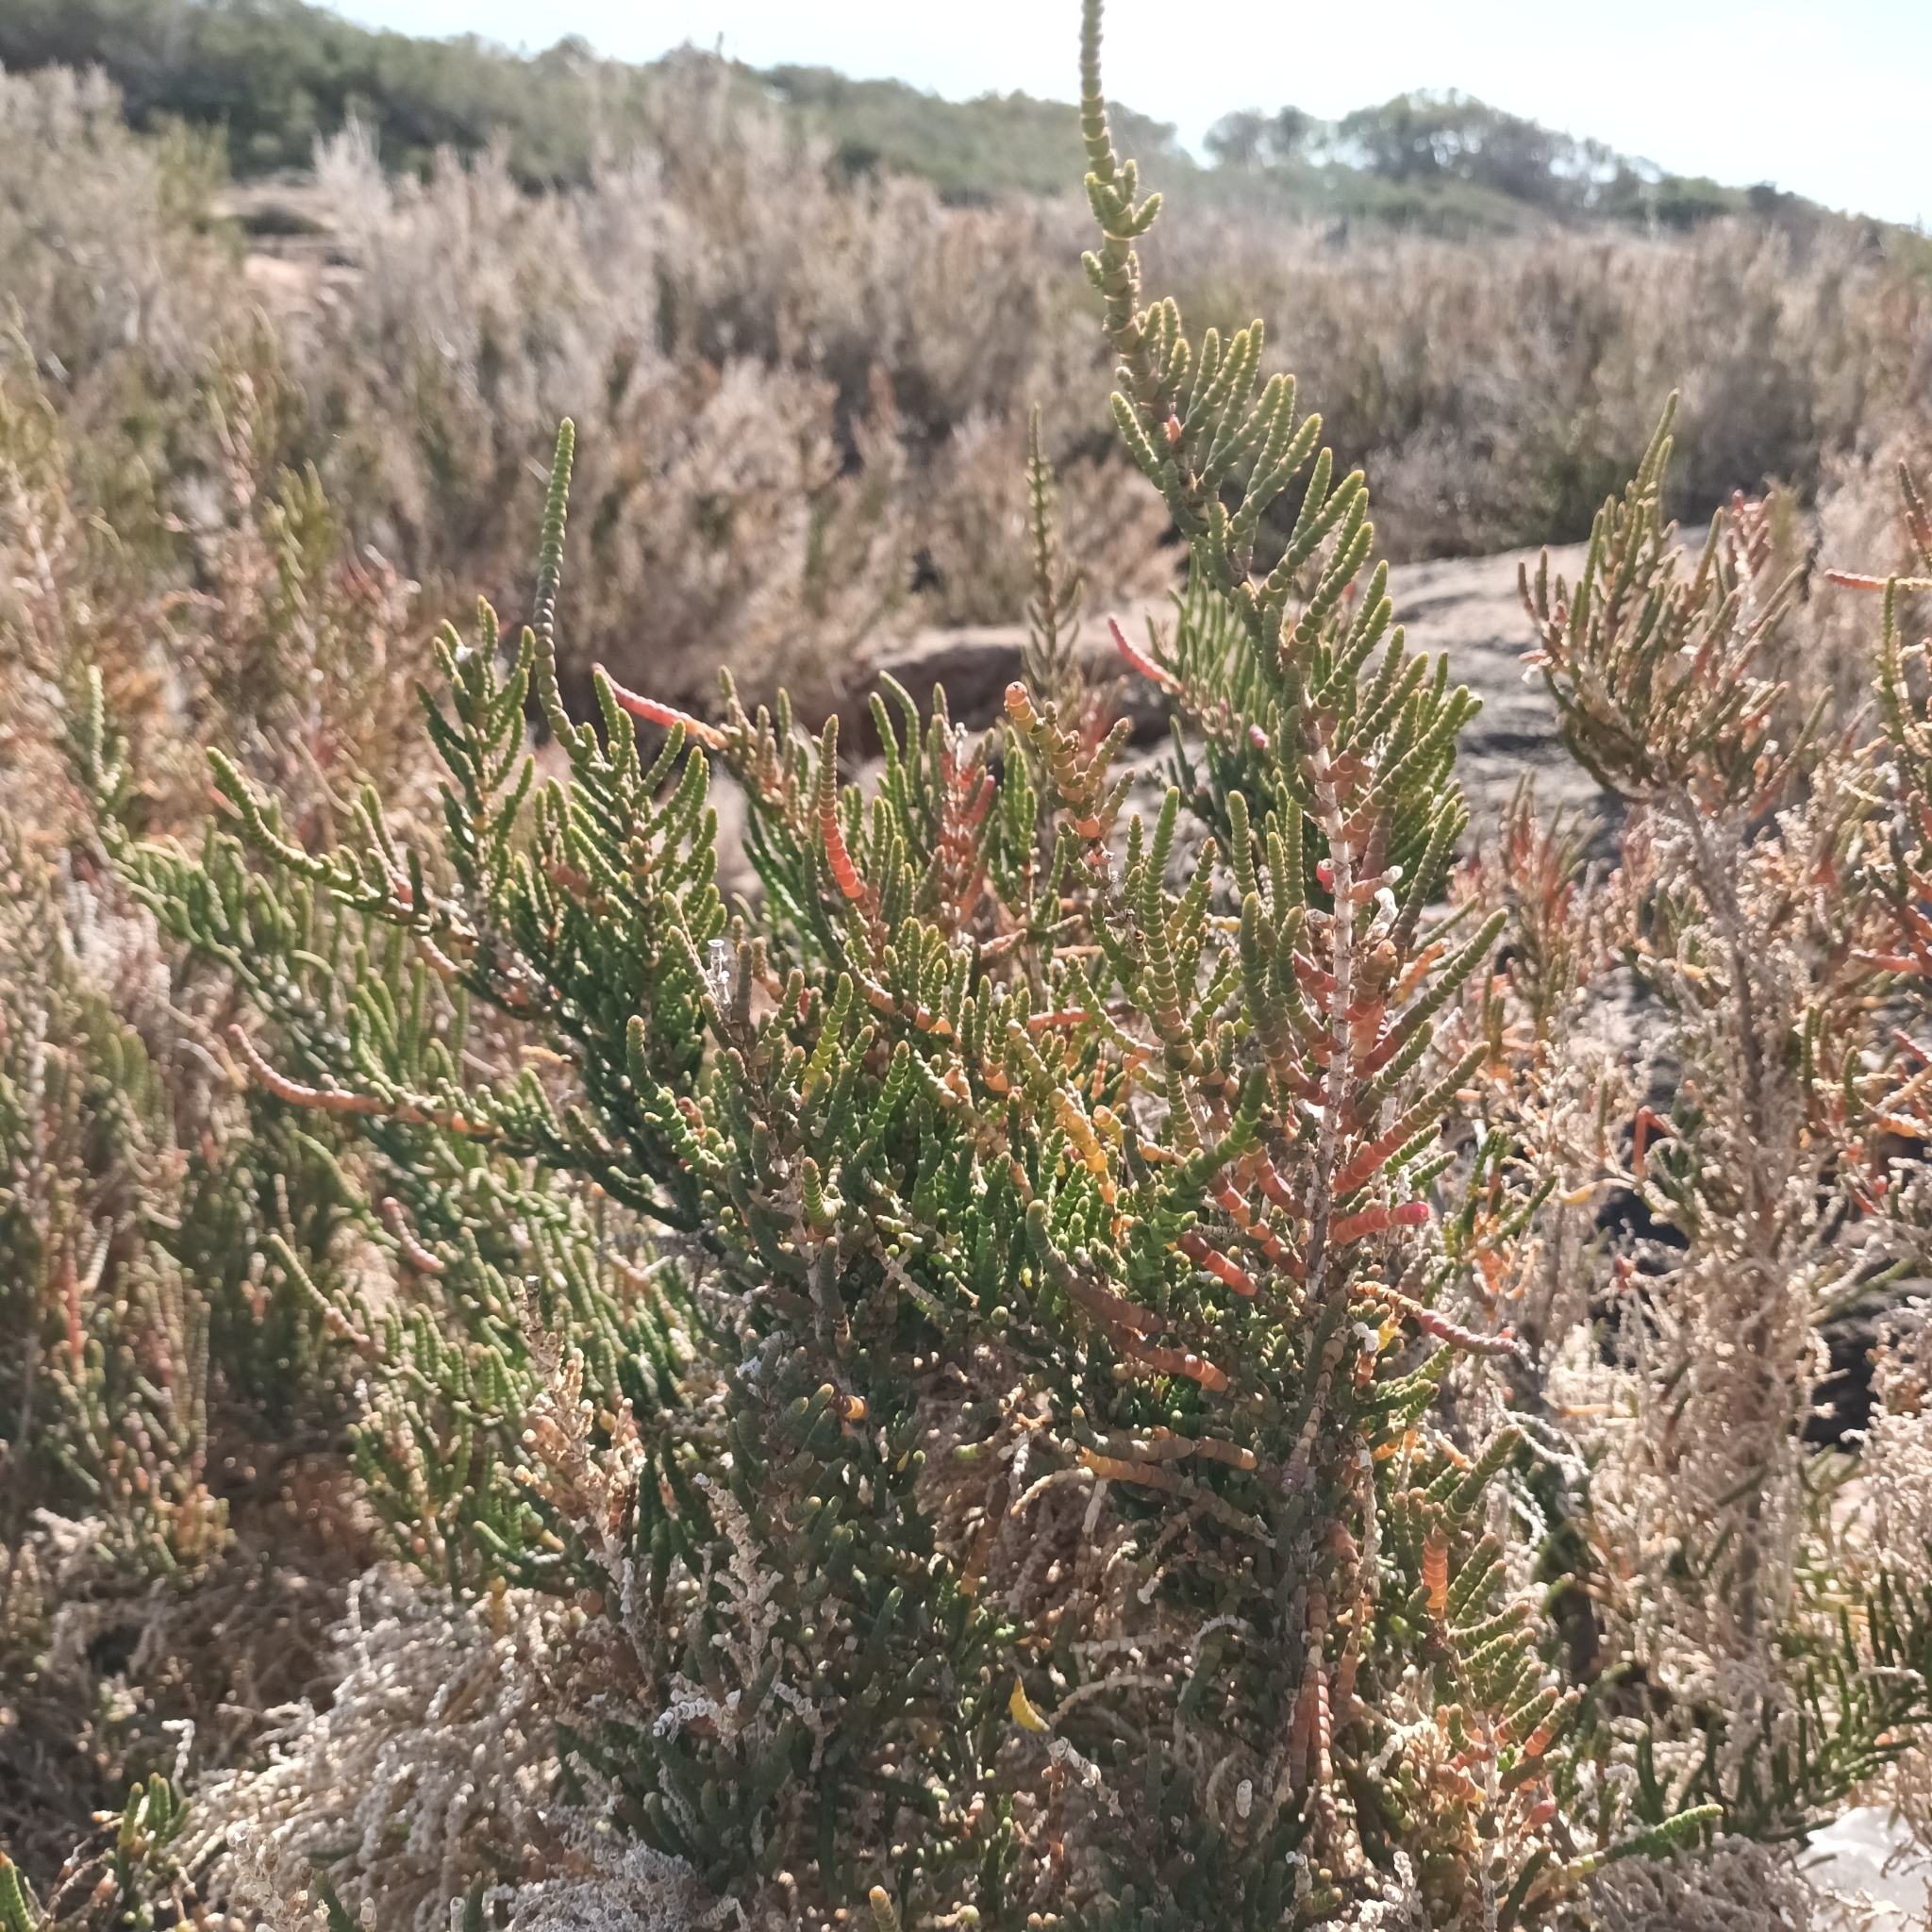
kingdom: Plantae
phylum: Tracheophyta
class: Magnoliopsida
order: Caryophyllales
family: Amaranthaceae
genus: Arthrocaulon
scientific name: Arthrocaulon macrostachyum
